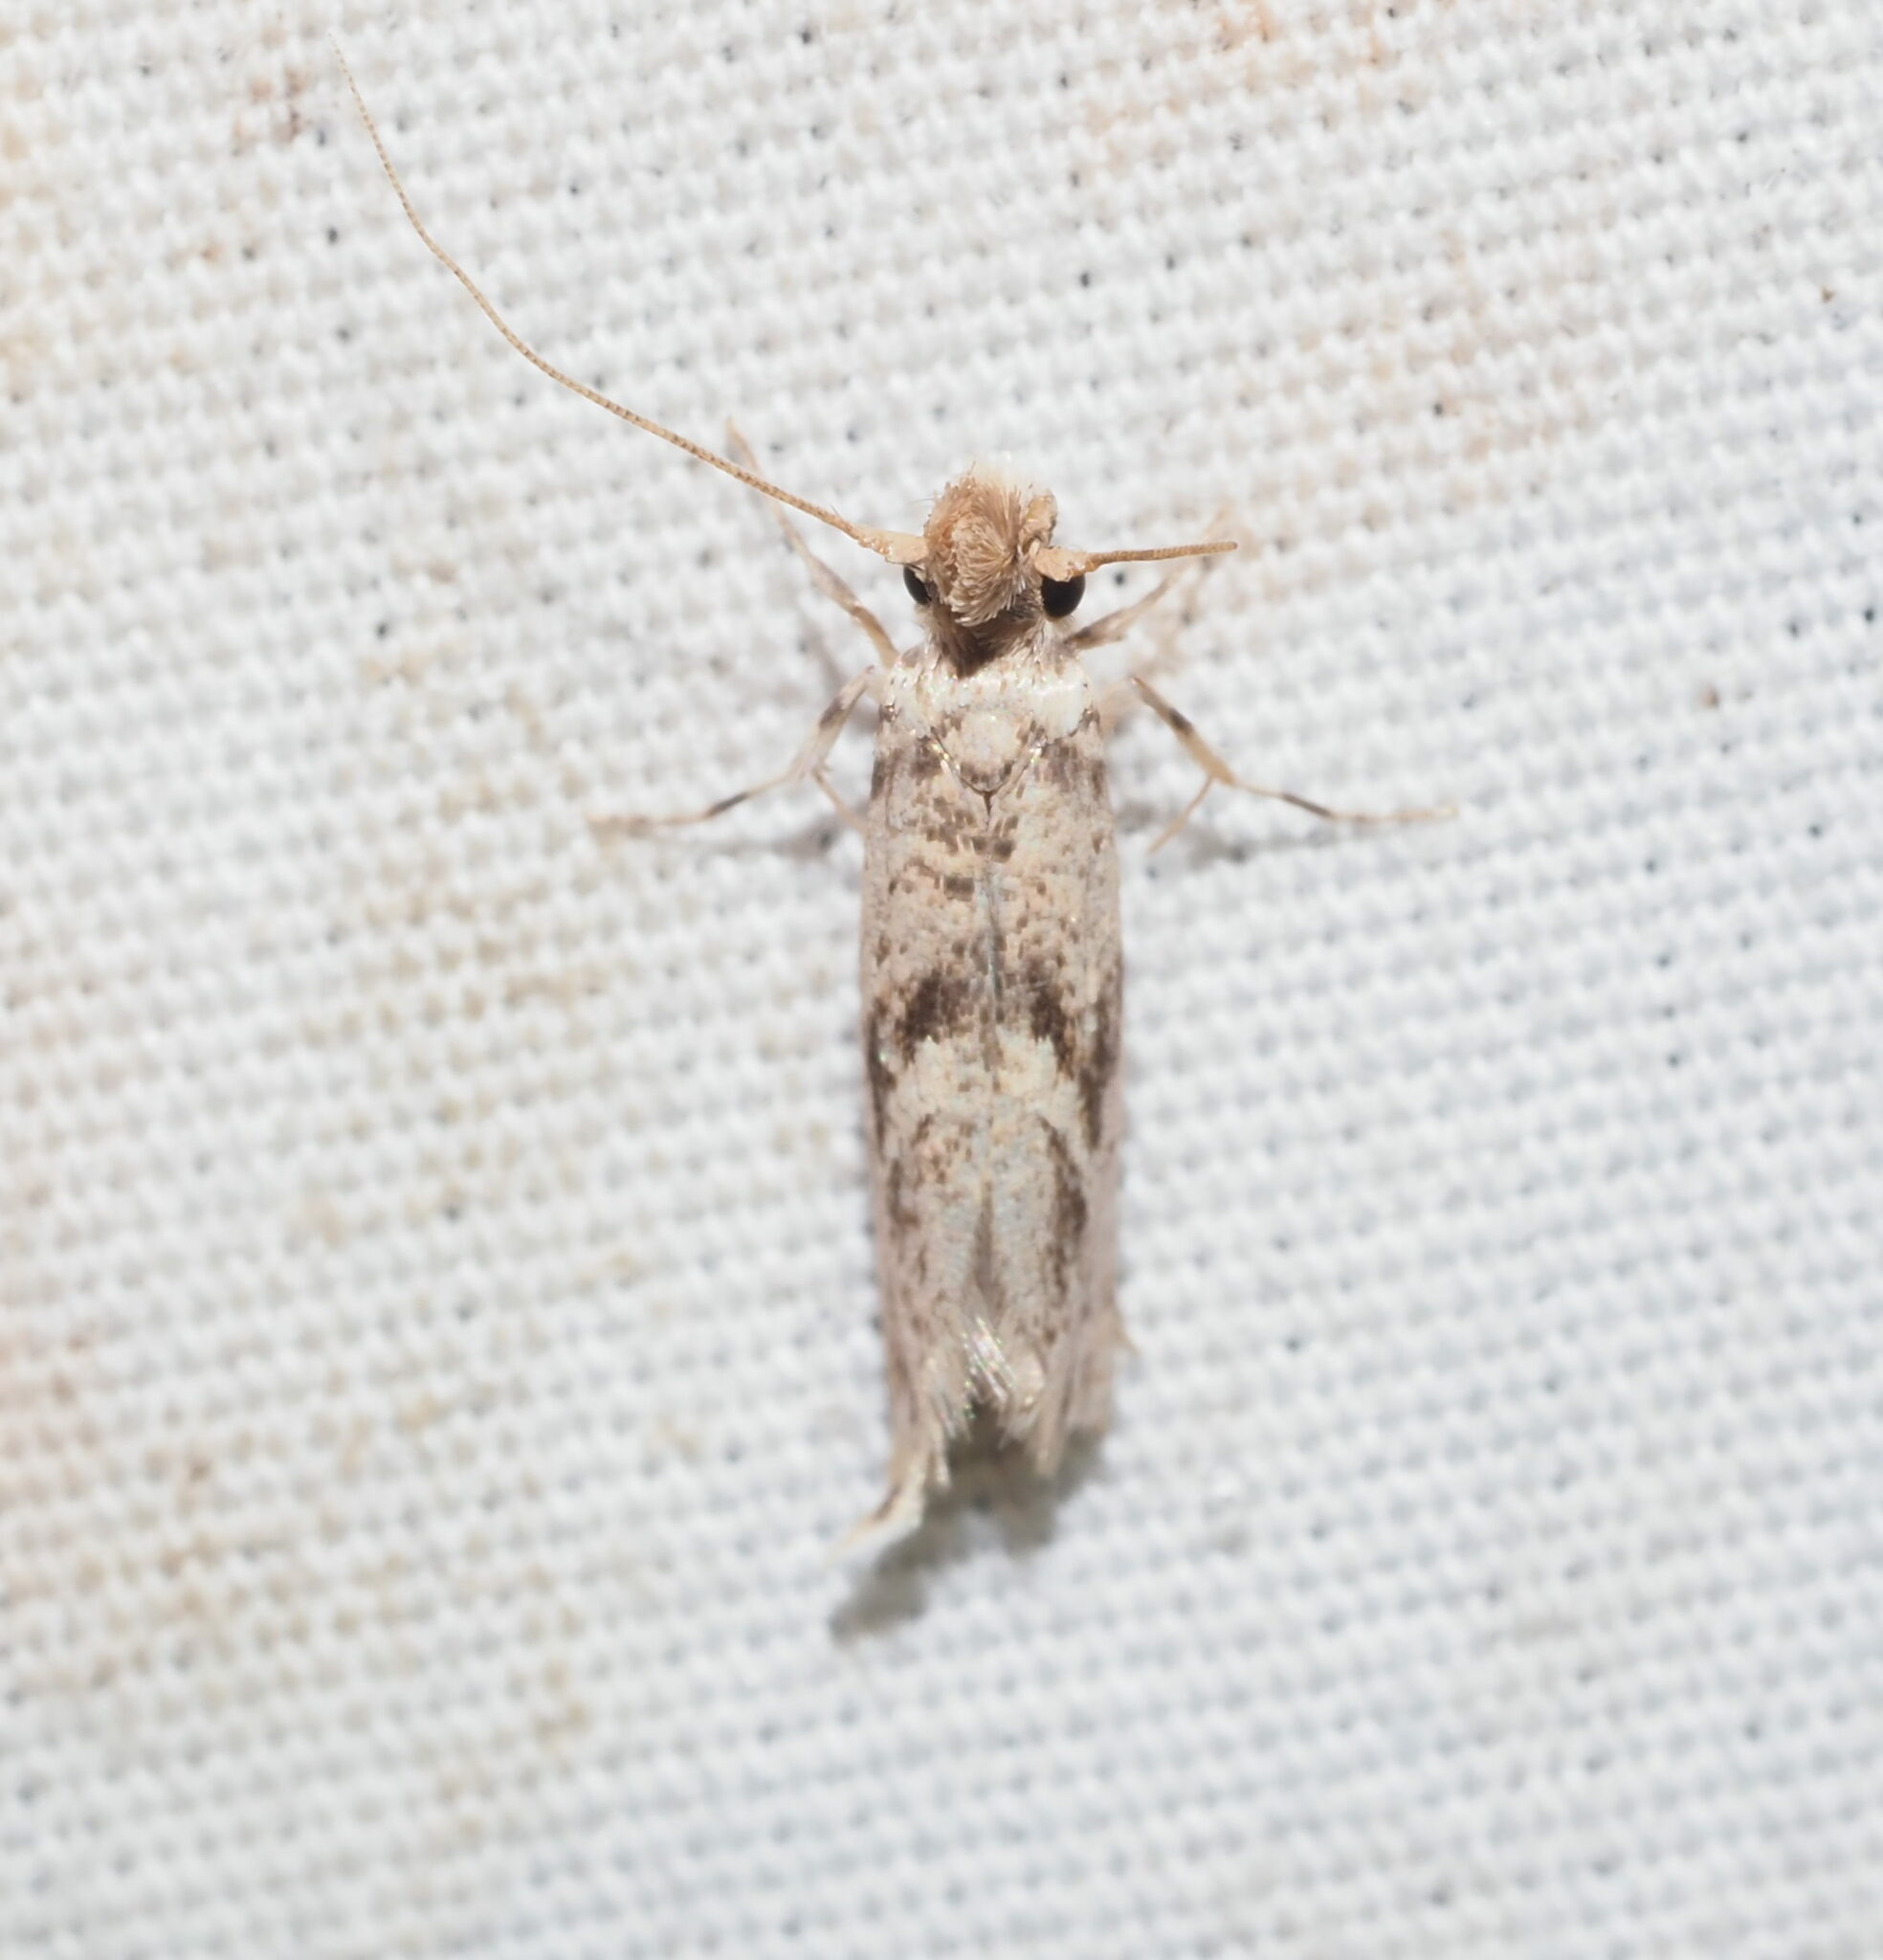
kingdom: Animalia
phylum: Arthropoda
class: Insecta
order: Lepidoptera
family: Tineidae
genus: Erechthias
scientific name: Erechthias pelotricha
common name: Fungus moth
